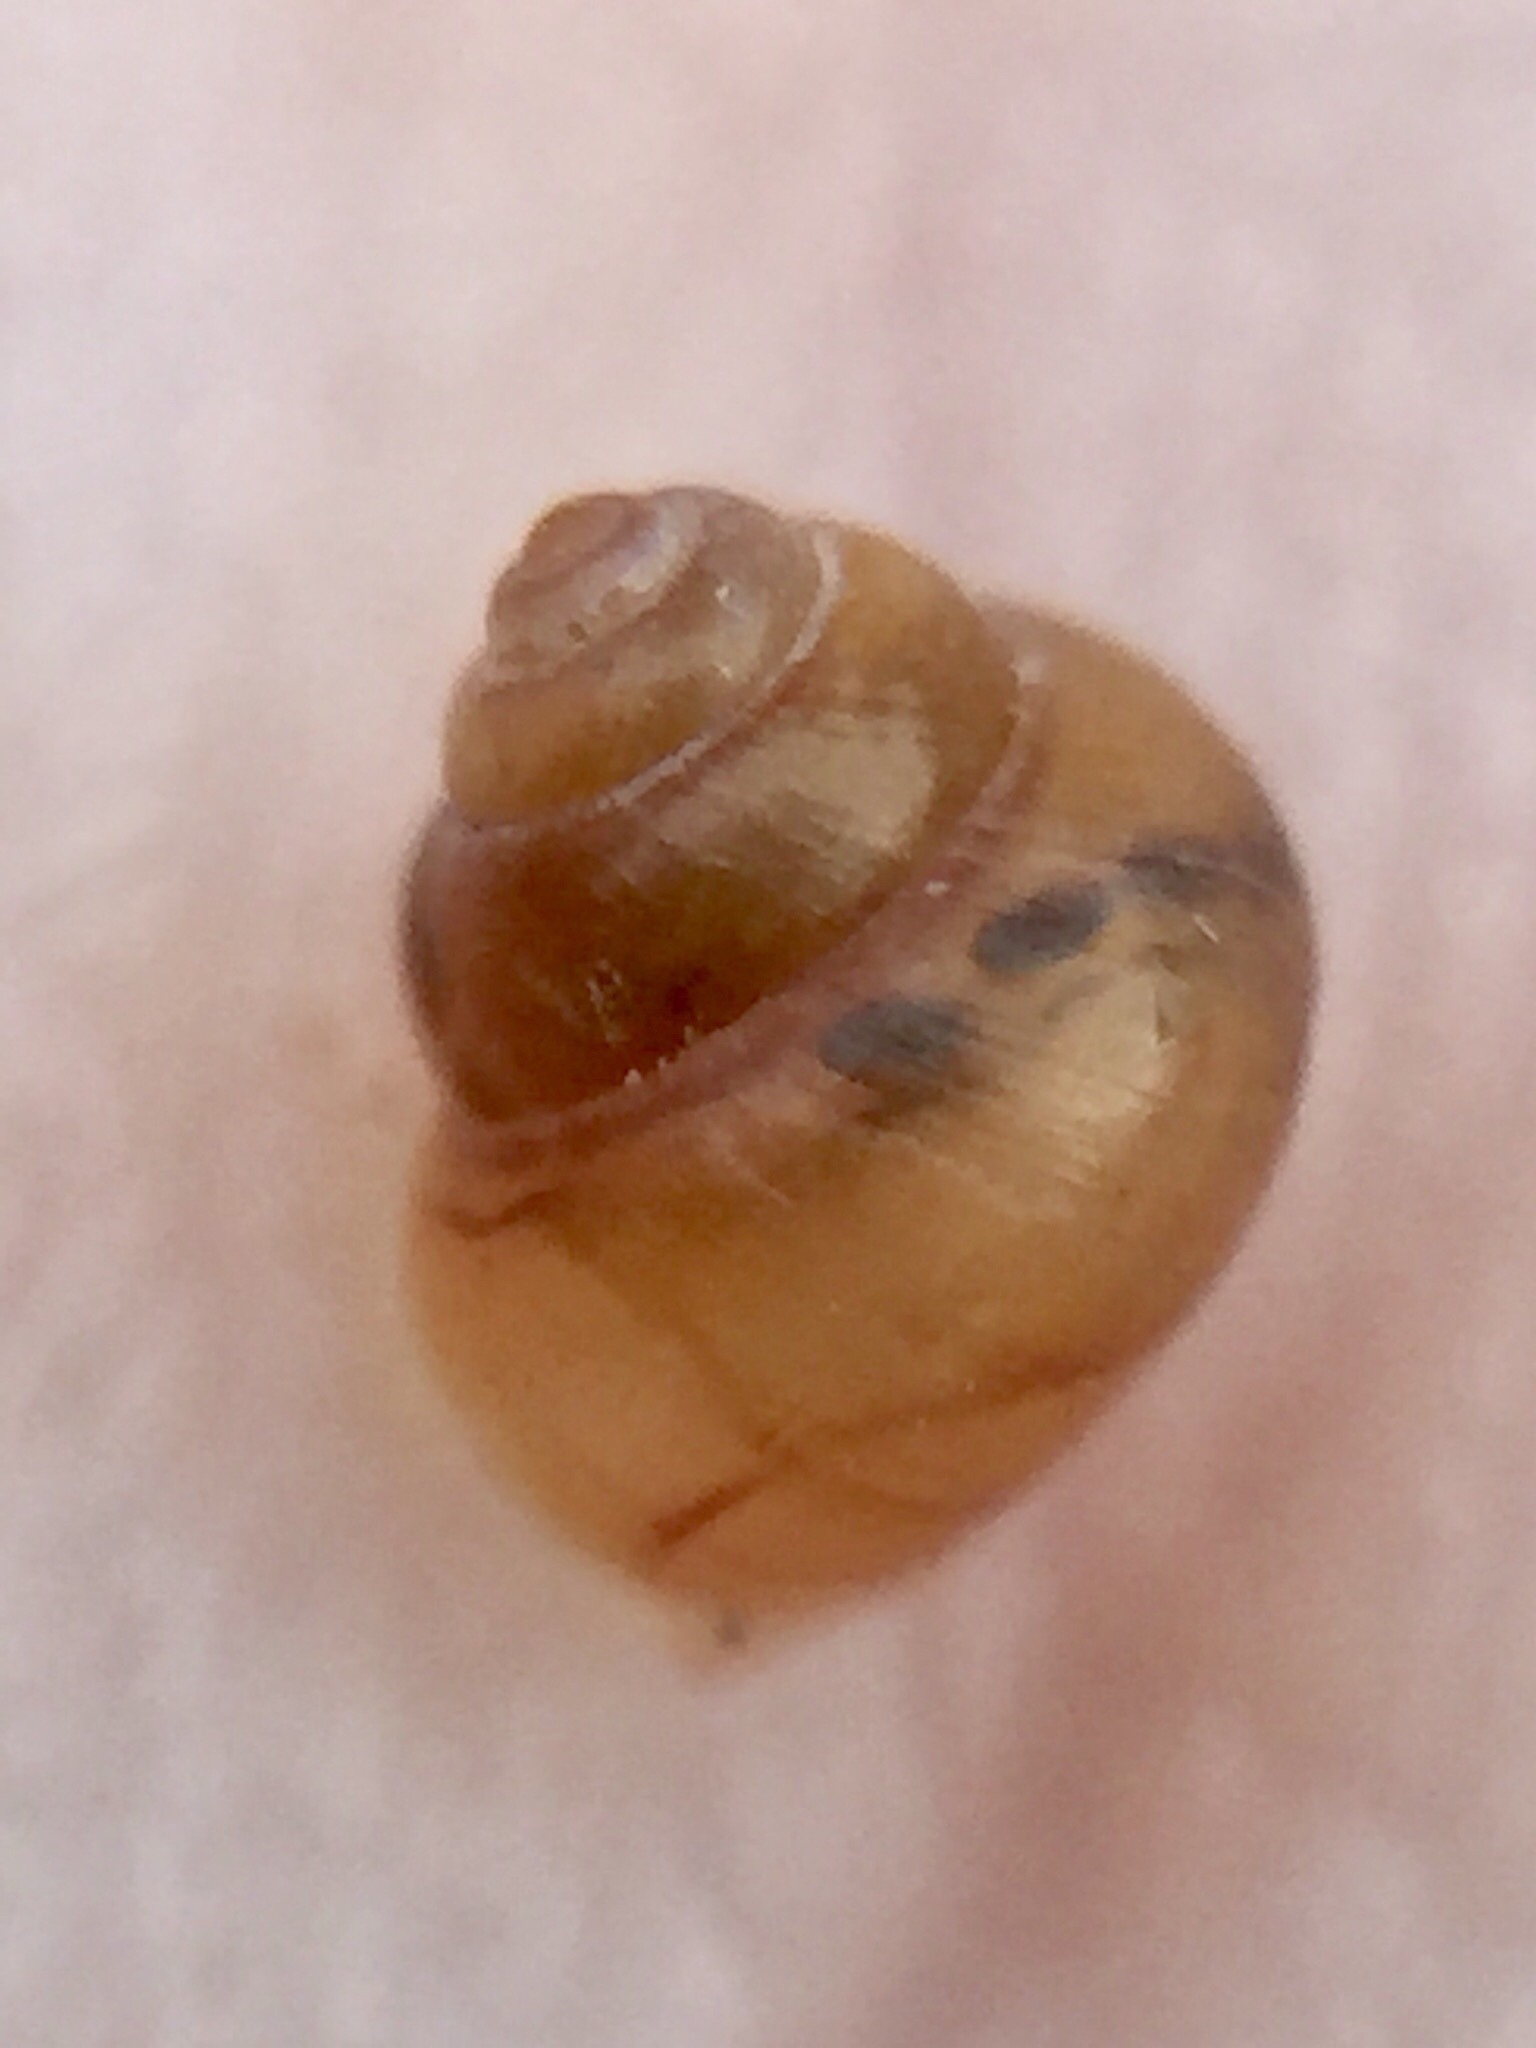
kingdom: Animalia
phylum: Mollusca
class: Gastropoda
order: Littorinimorpha
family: Assimineidae
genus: Suterilla
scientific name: Suterilla neozelanica
